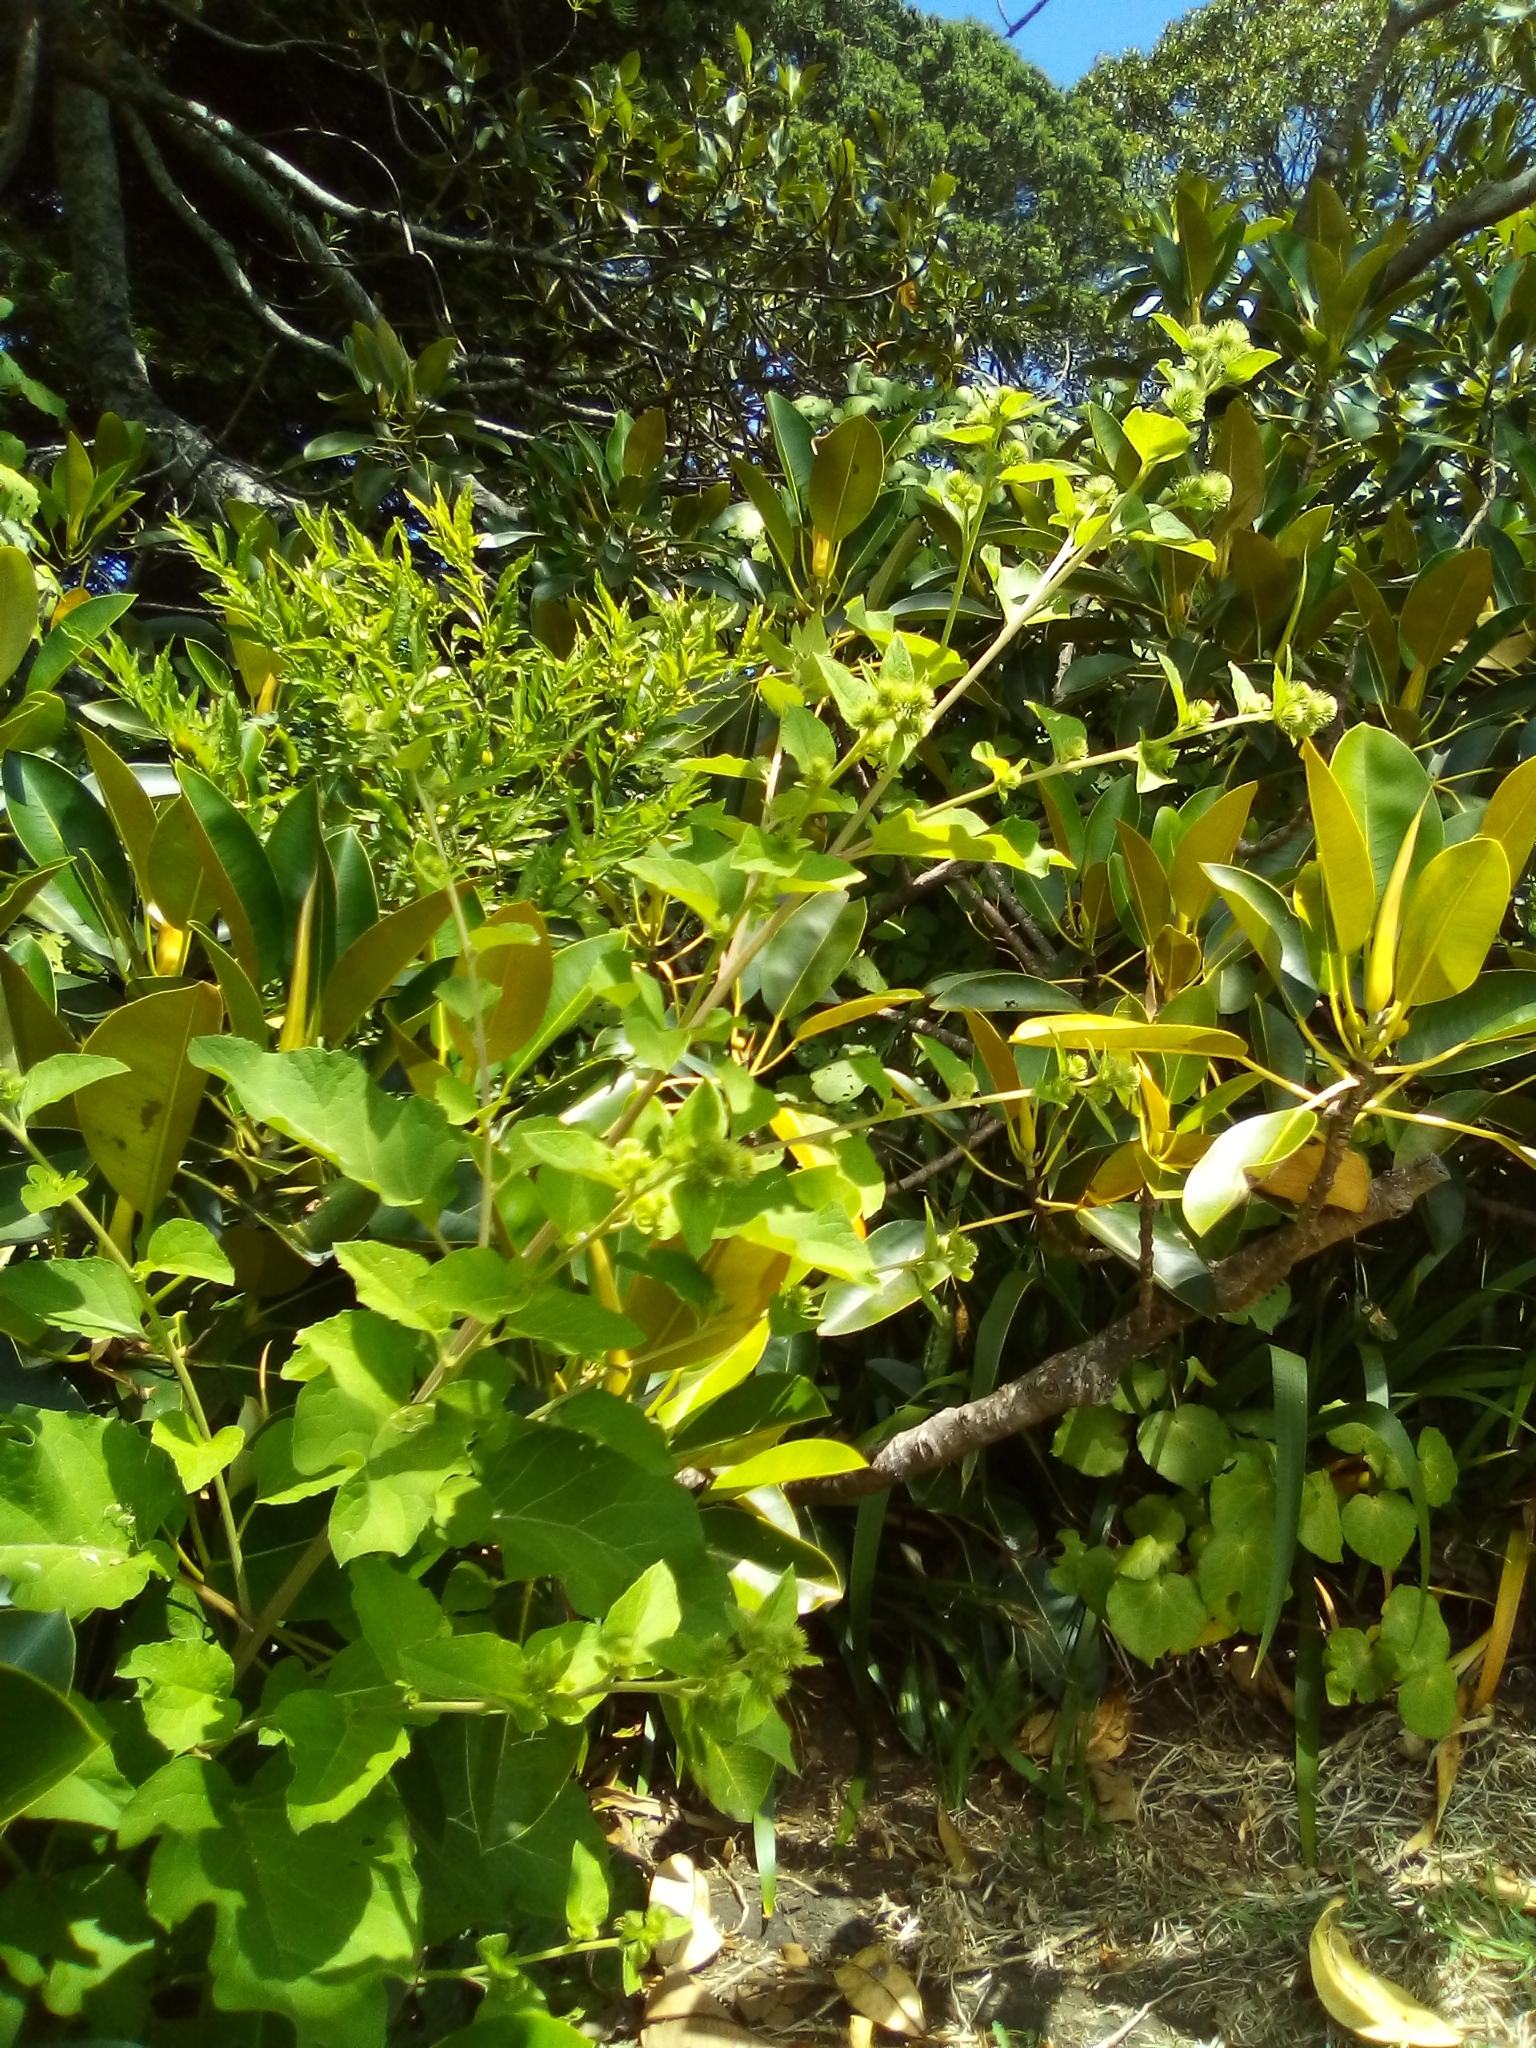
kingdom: Plantae
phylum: Tracheophyta
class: Magnoliopsida
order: Asterales
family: Asteraceae
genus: Arctium
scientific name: Arctium lappa
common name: Greater burdock
